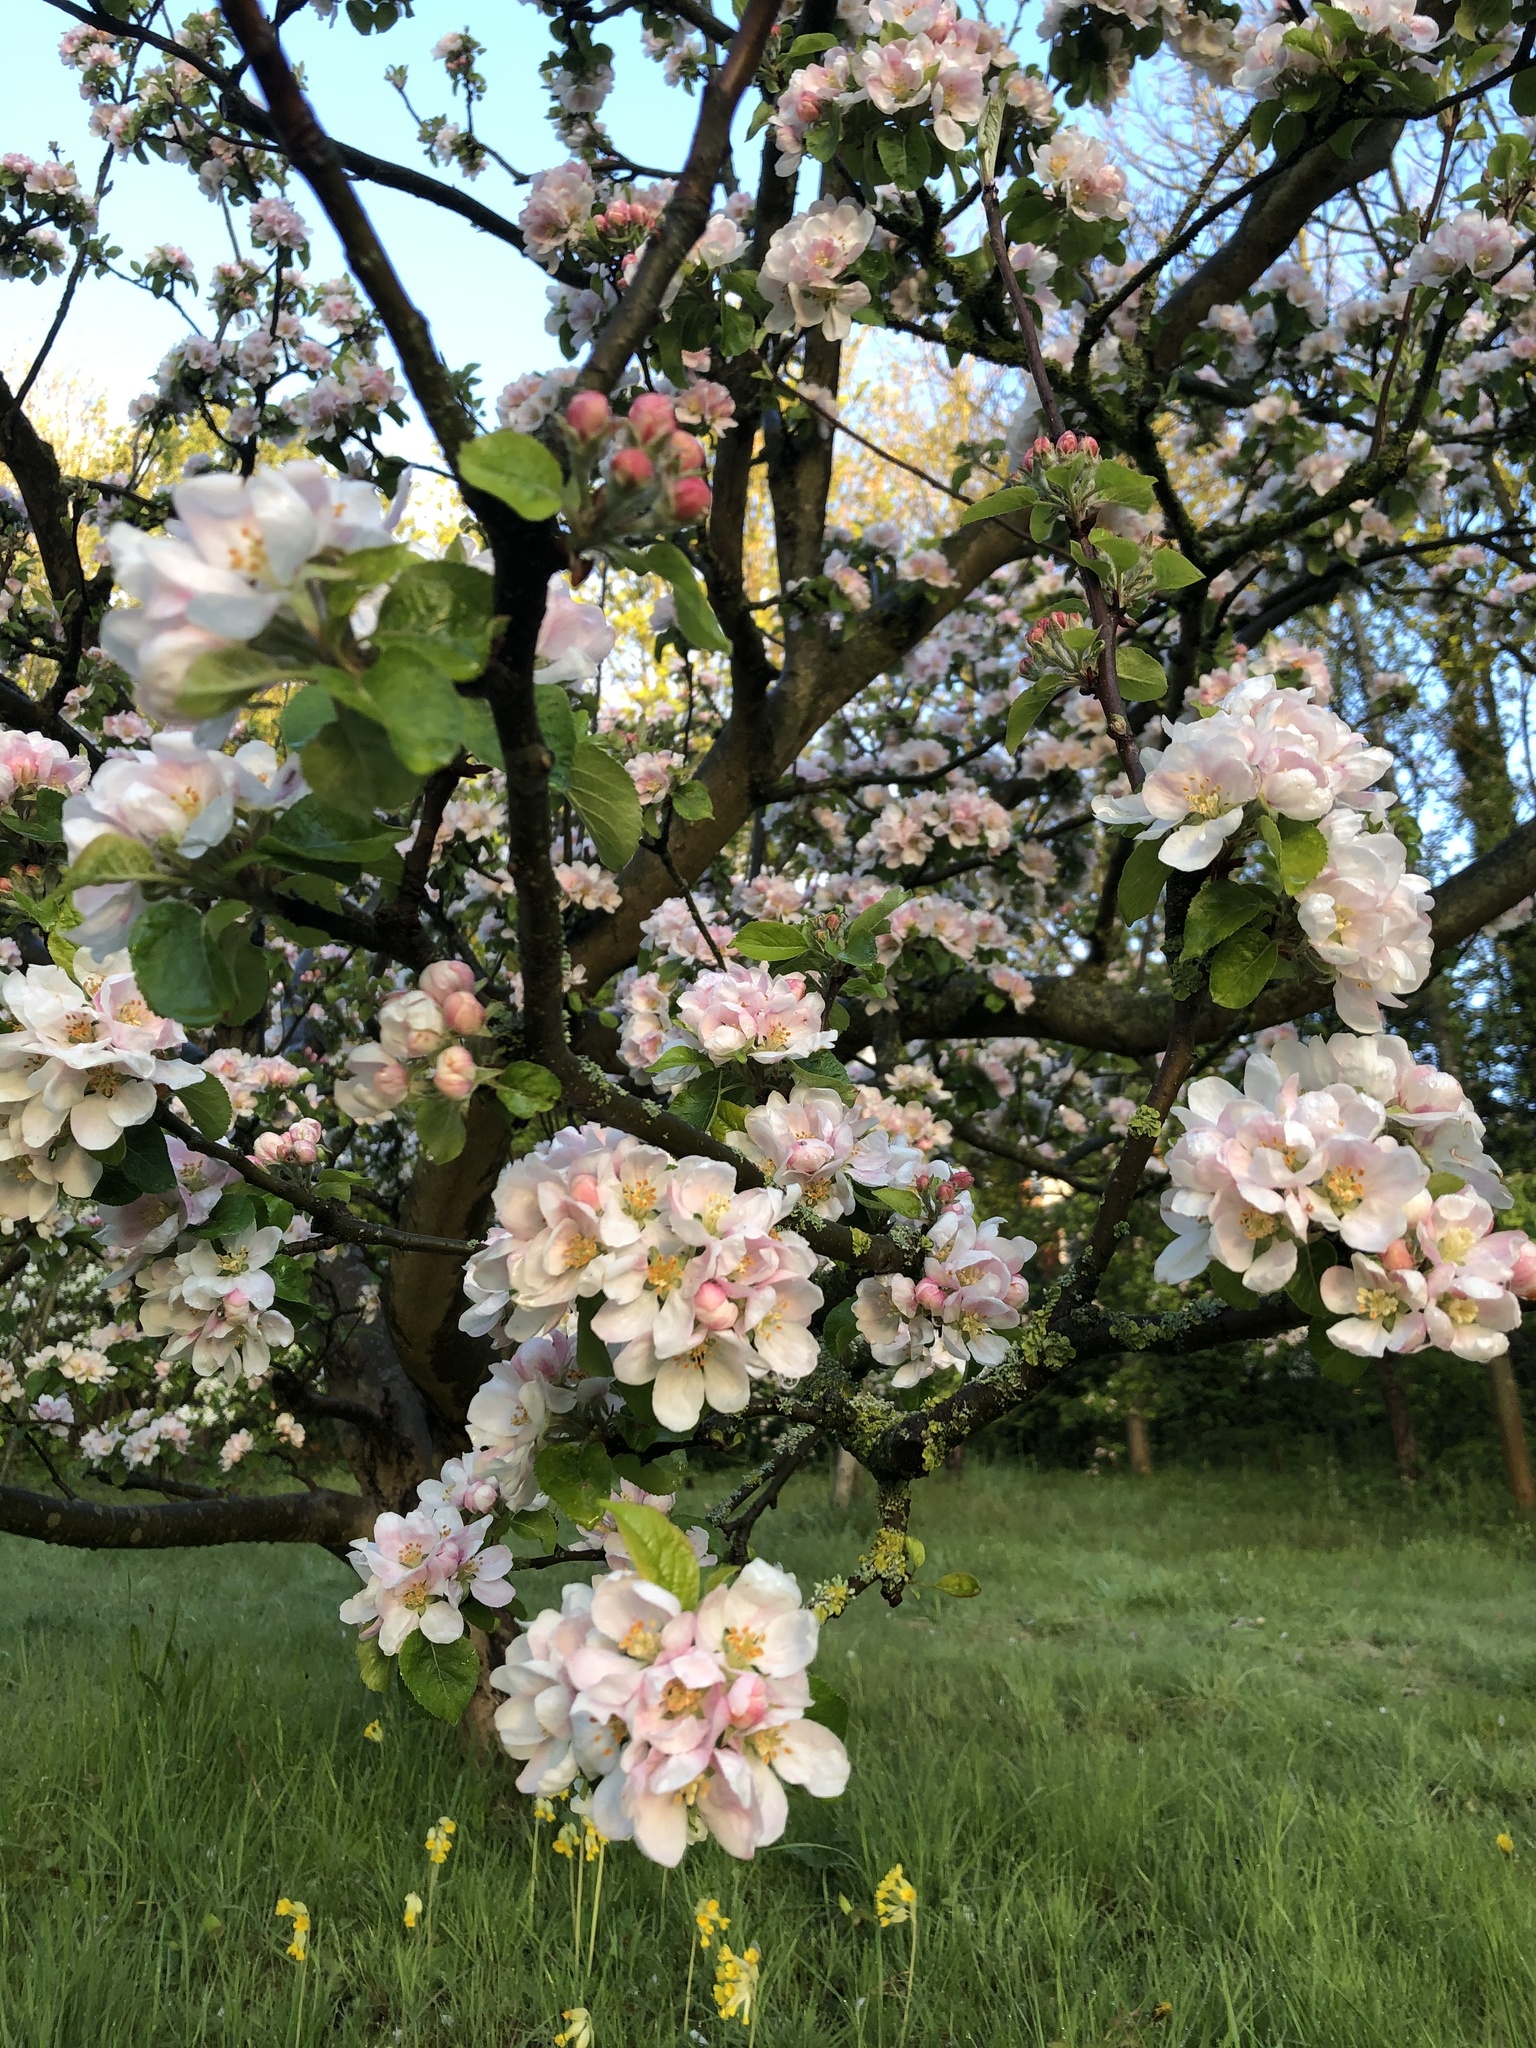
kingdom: Plantae
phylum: Tracheophyta
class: Magnoliopsida
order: Rosales
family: Rosaceae
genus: Malus
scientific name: Malus domestica
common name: Apple
